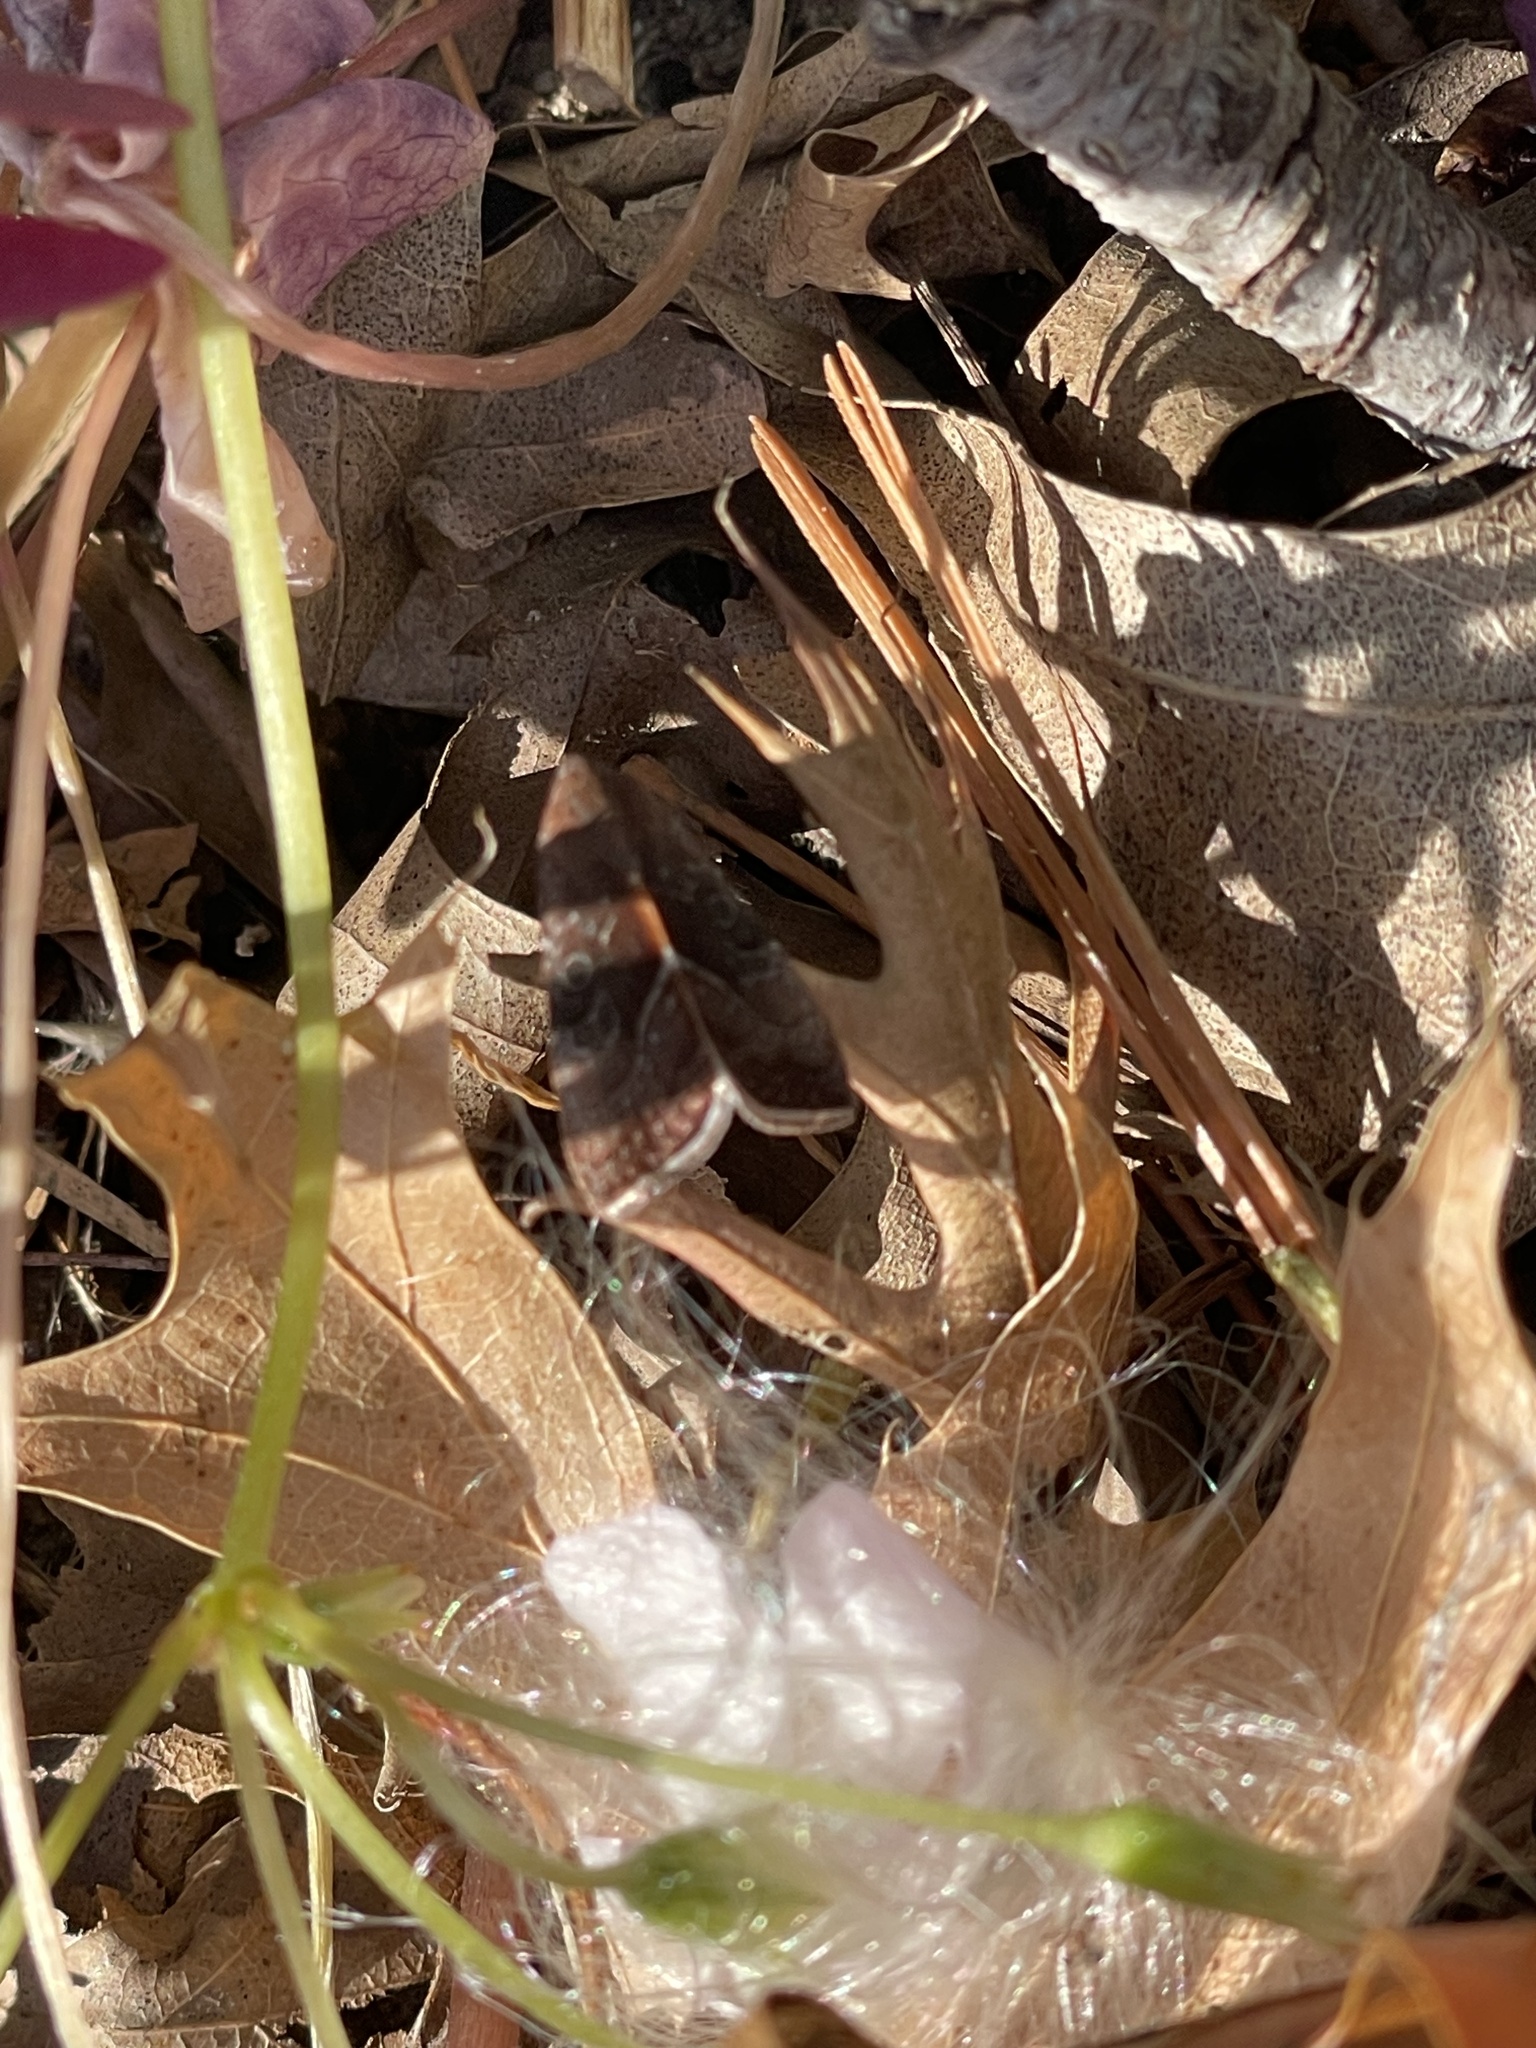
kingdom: Animalia
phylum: Arthropoda
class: Insecta
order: Lepidoptera
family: Noctuidae
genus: Galgula
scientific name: Galgula partita
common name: Wedgeling
